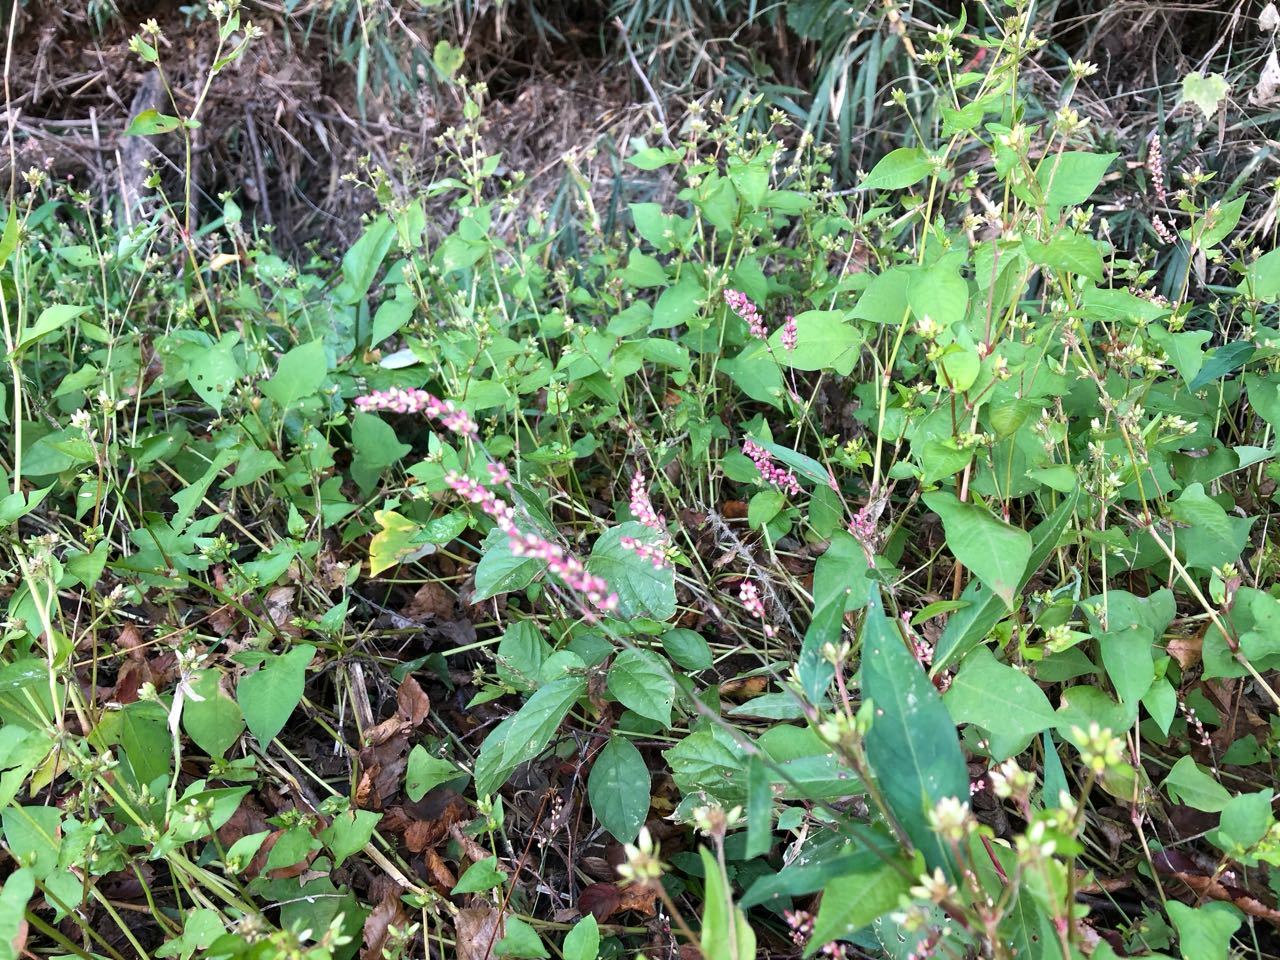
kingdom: Plantae
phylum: Tracheophyta
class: Magnoliopsida
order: Caryophyllales
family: Polygonaceae
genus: Persicaria
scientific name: Persicaria longiseta
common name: Bristly lady's-thumb
